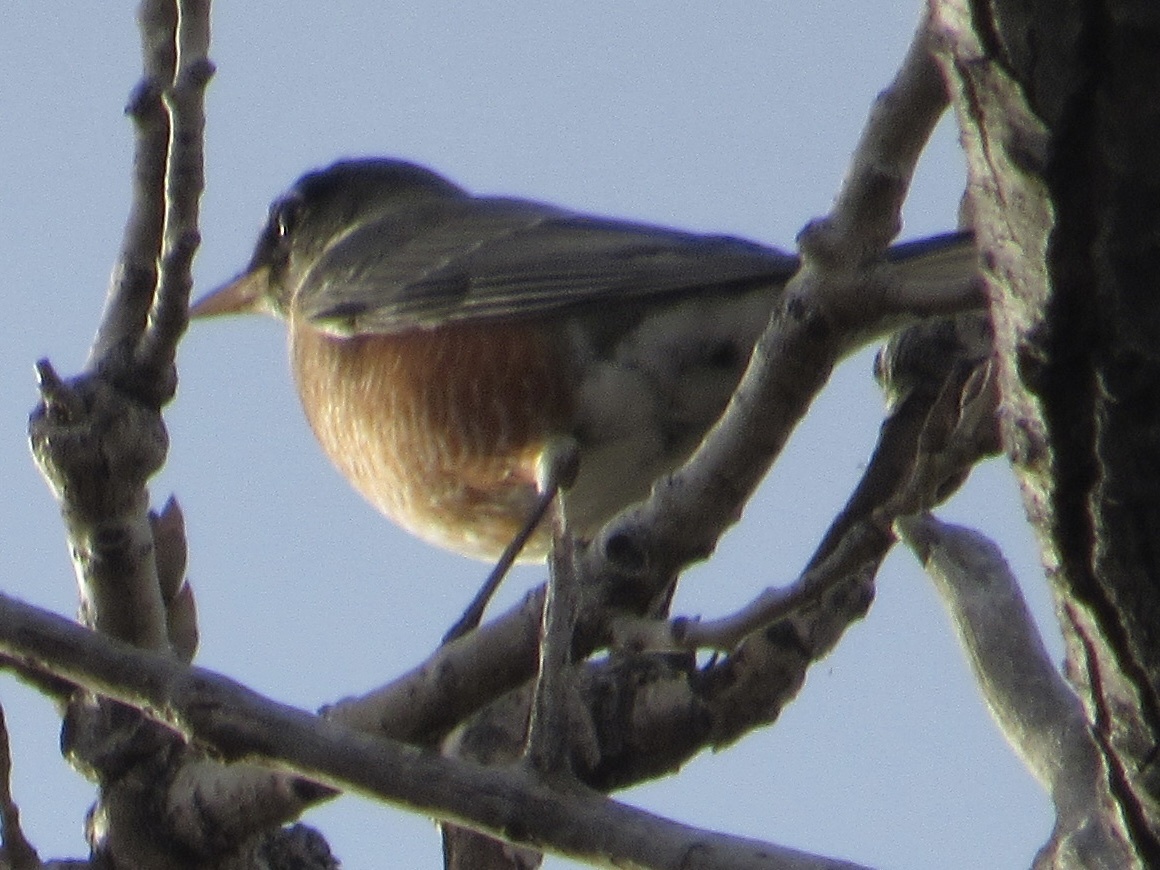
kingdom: Animalia
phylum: Chordata
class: Aves
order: Passeriformes
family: Turdidae
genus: Turdus
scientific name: Turdus migratorius
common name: American robin
